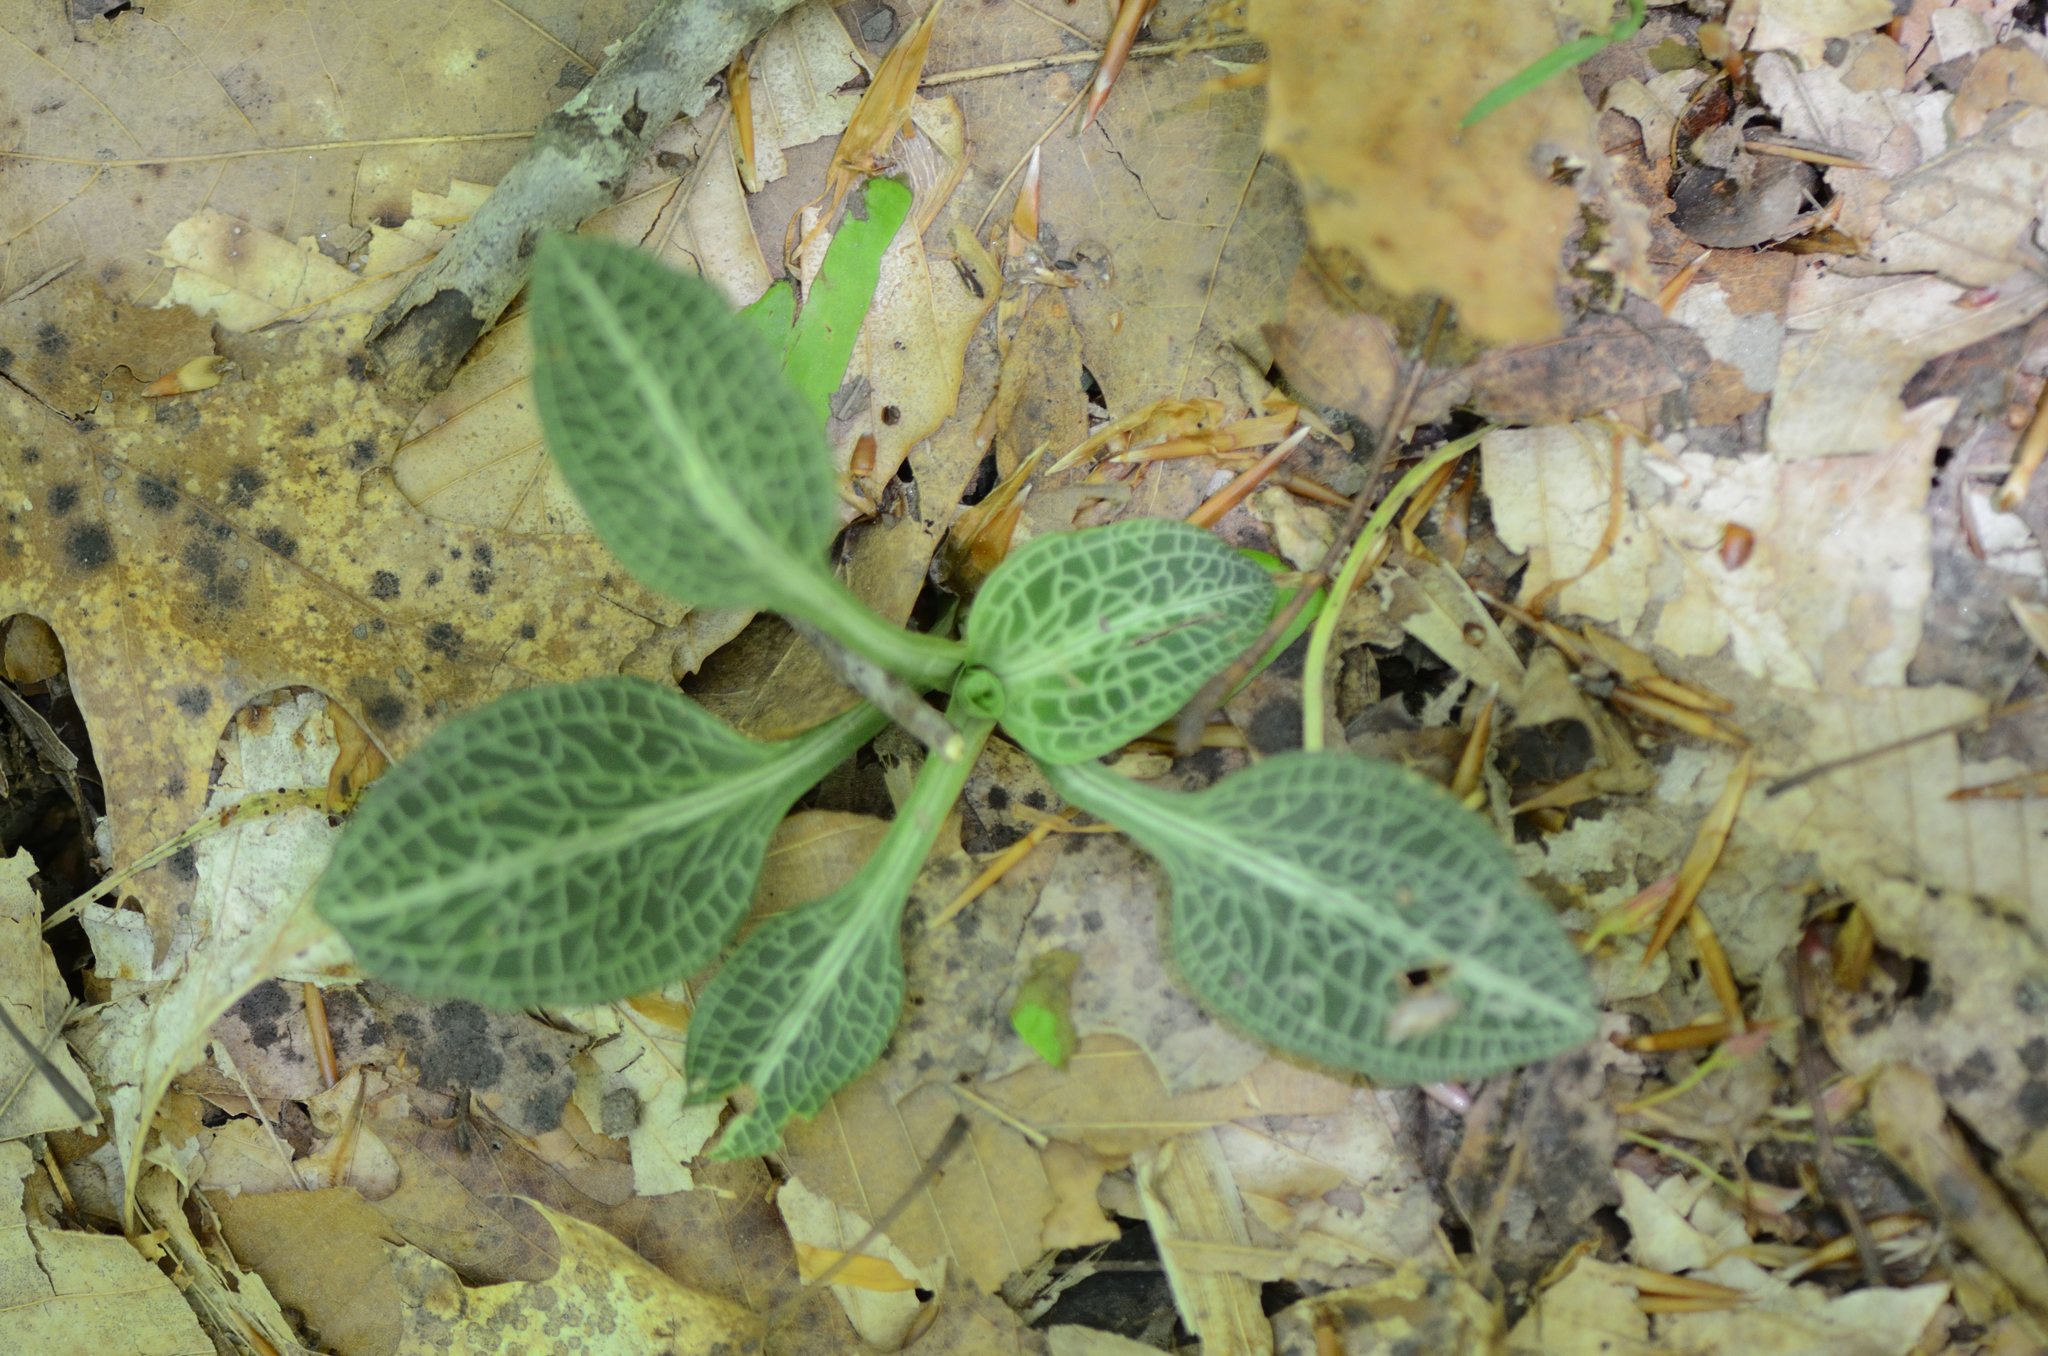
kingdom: Plantae
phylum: Tracheophyta
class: Liliopsida
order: Asparagales
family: Orchidaceae
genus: Goodyera
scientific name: Goodyera pubescens
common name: Downy rattlesnake-plantain
